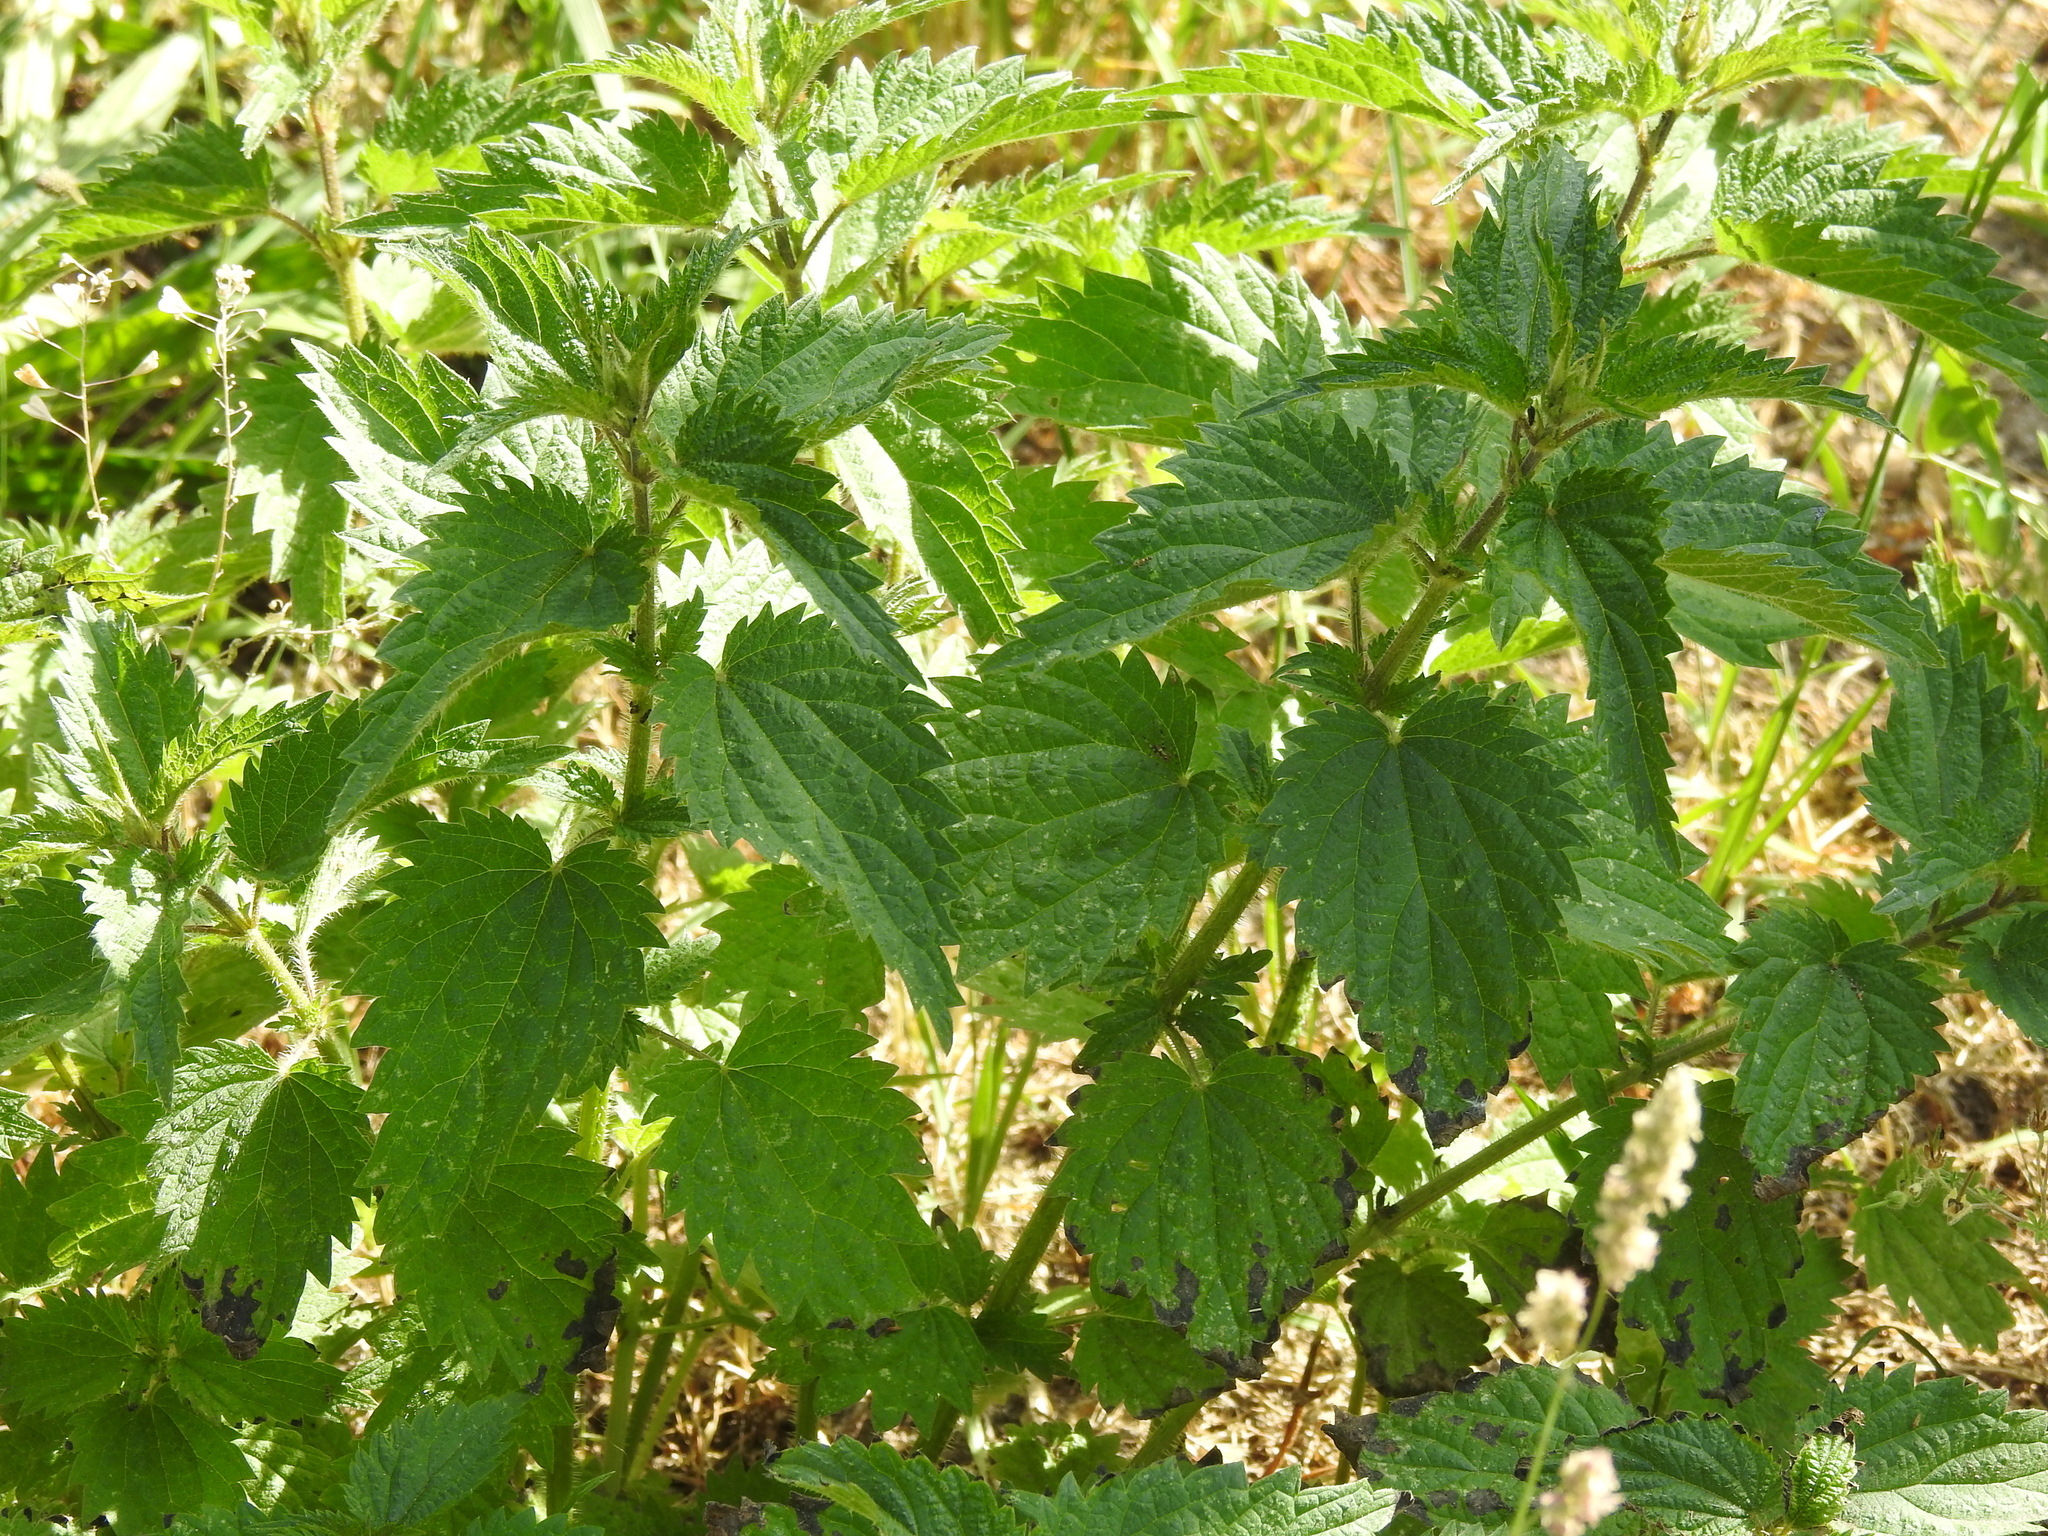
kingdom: Plantae
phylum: Tracheophyta
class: Magnoliopsida
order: Rosales
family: Urticaceae
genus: Urtica
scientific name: Urtica dioica
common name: Common nettle
